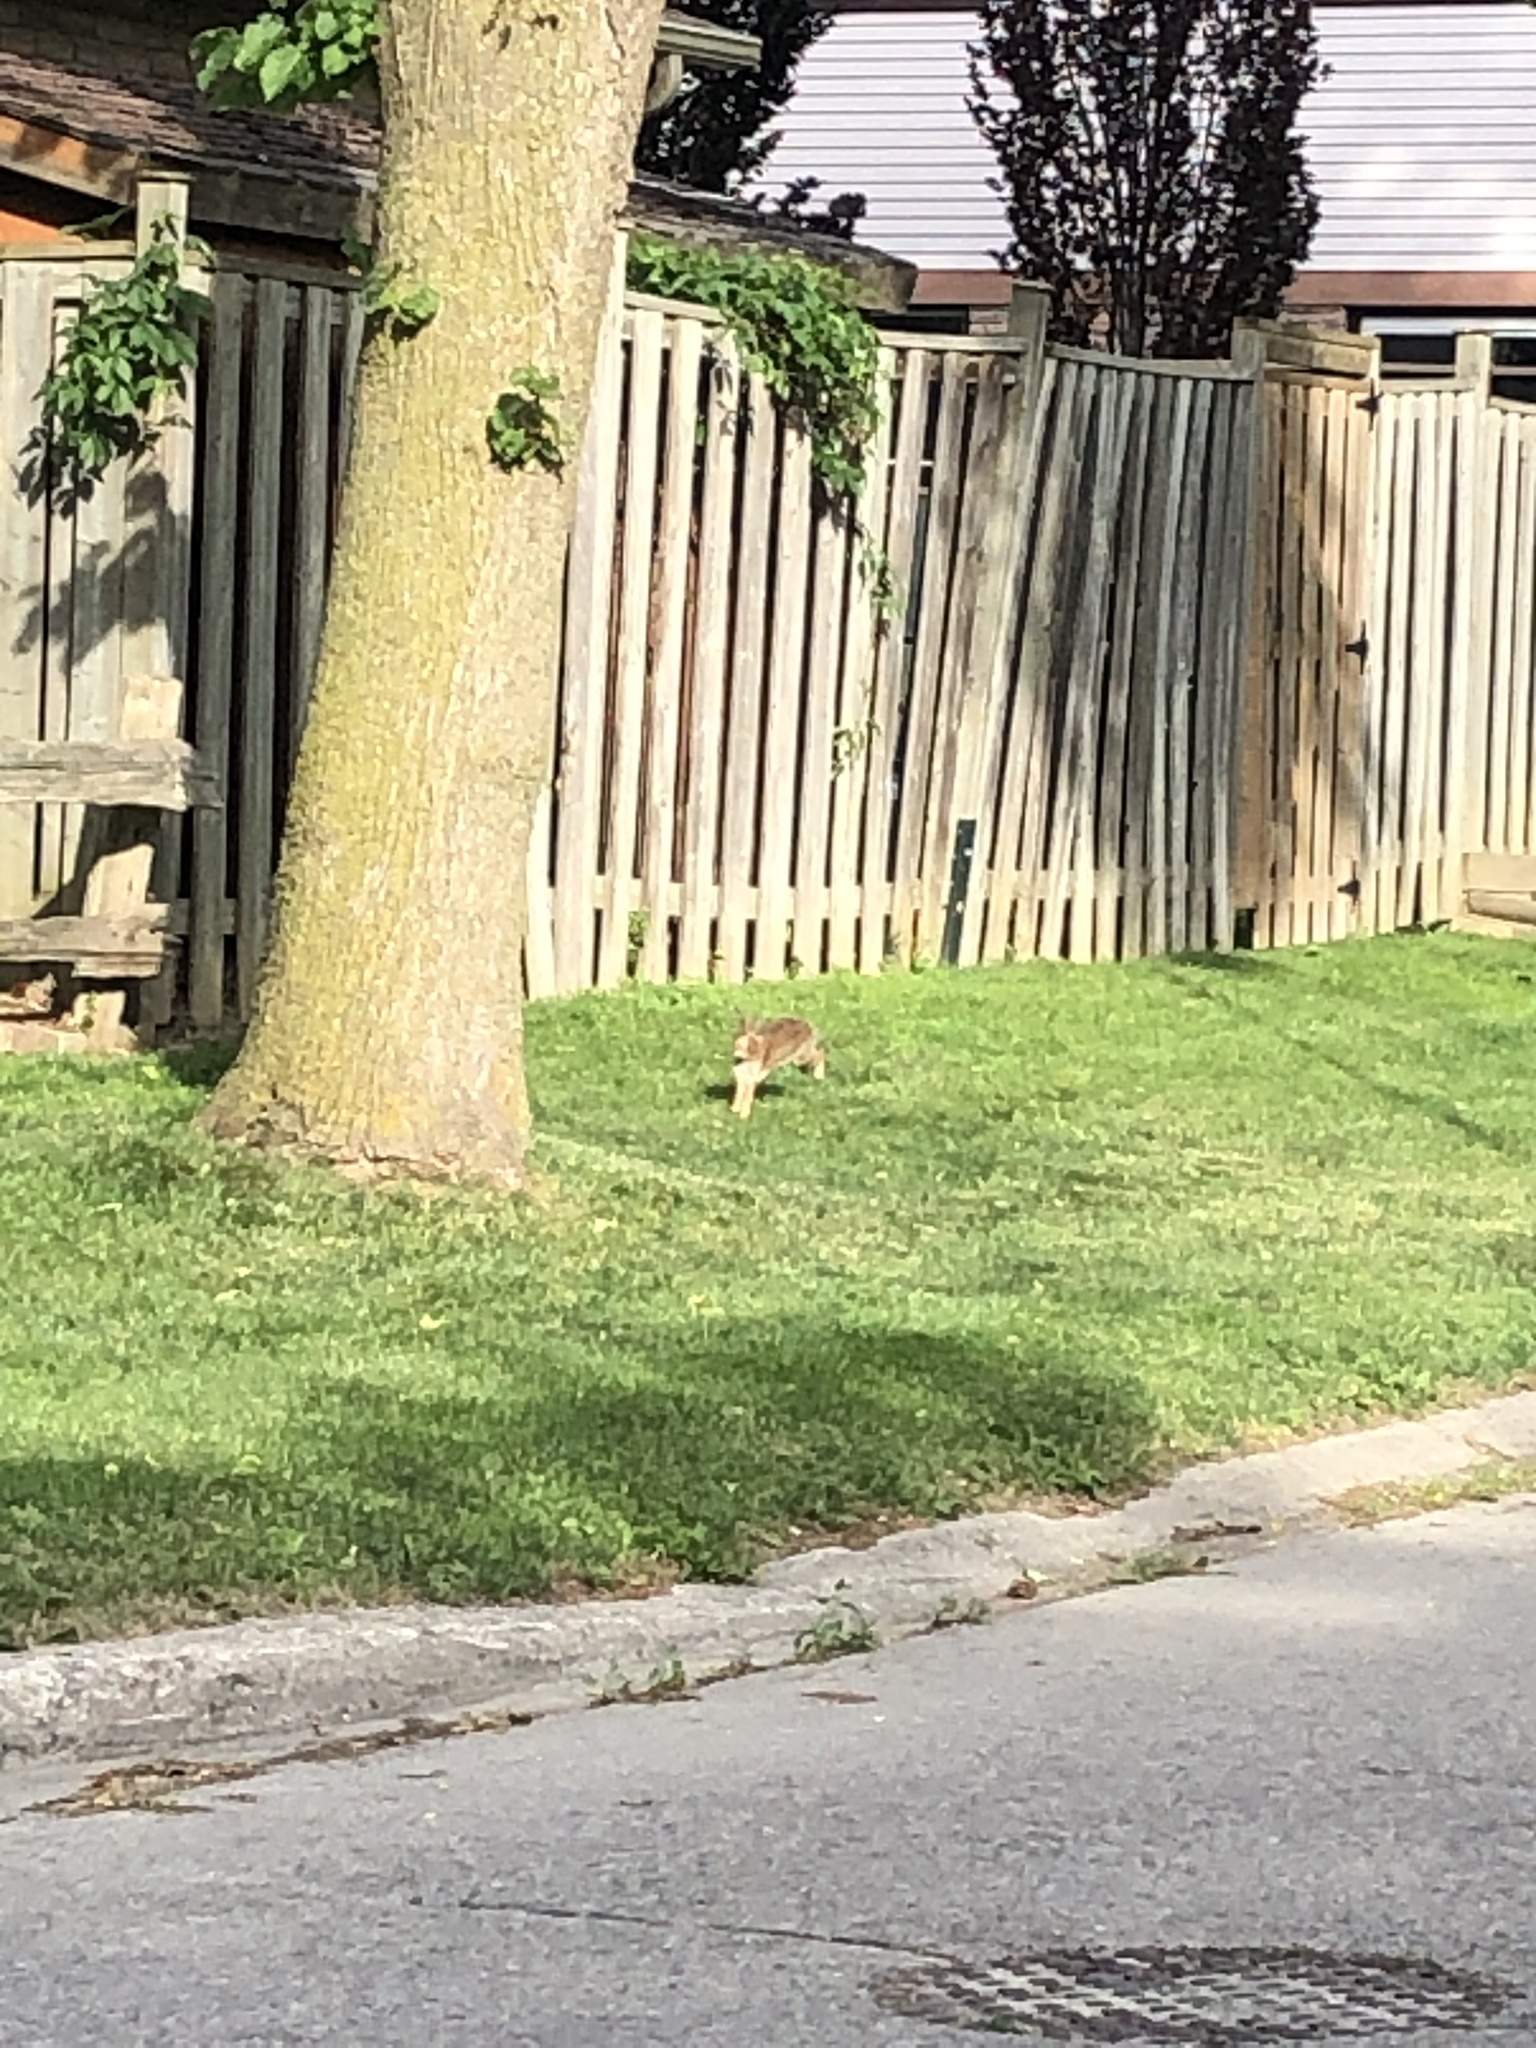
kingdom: Animalia
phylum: Chordata
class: Mammalia
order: Lagomorpha
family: Leporidae
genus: Sylvilagus
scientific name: Sylvilagus floridanus
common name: Eastern cottontail
